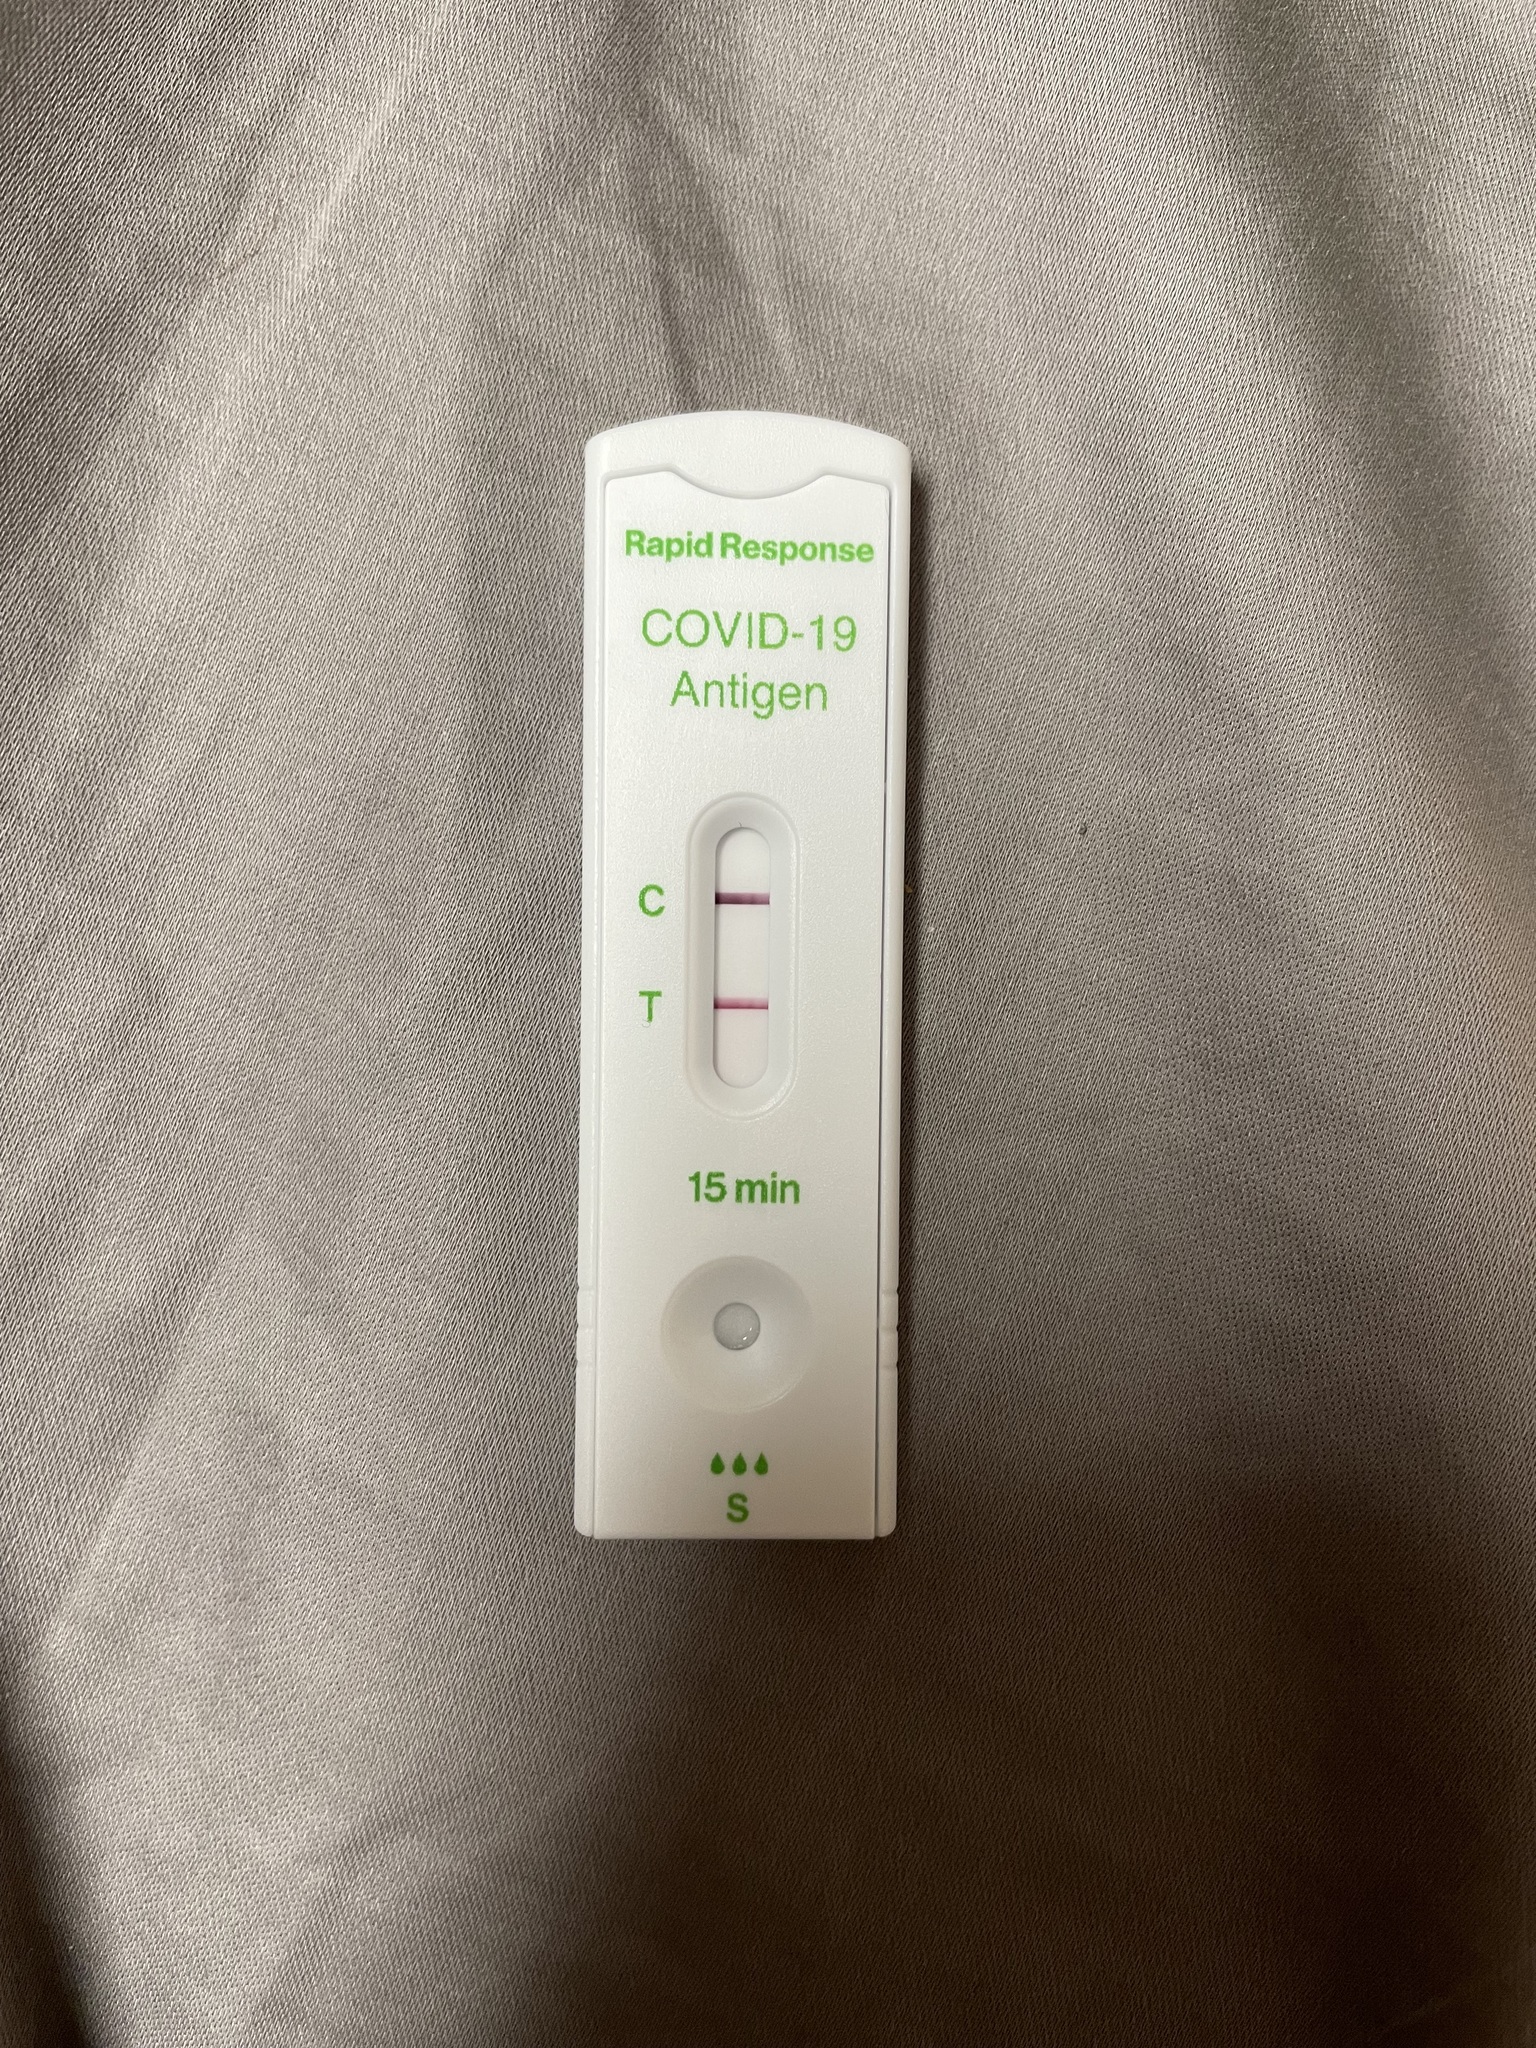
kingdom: Viruses
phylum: Pisuviricota
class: Pisoniviricetes
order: Nidovirales
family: Coronaviridae
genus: Betacoronavirus
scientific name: Betacoronavirus
